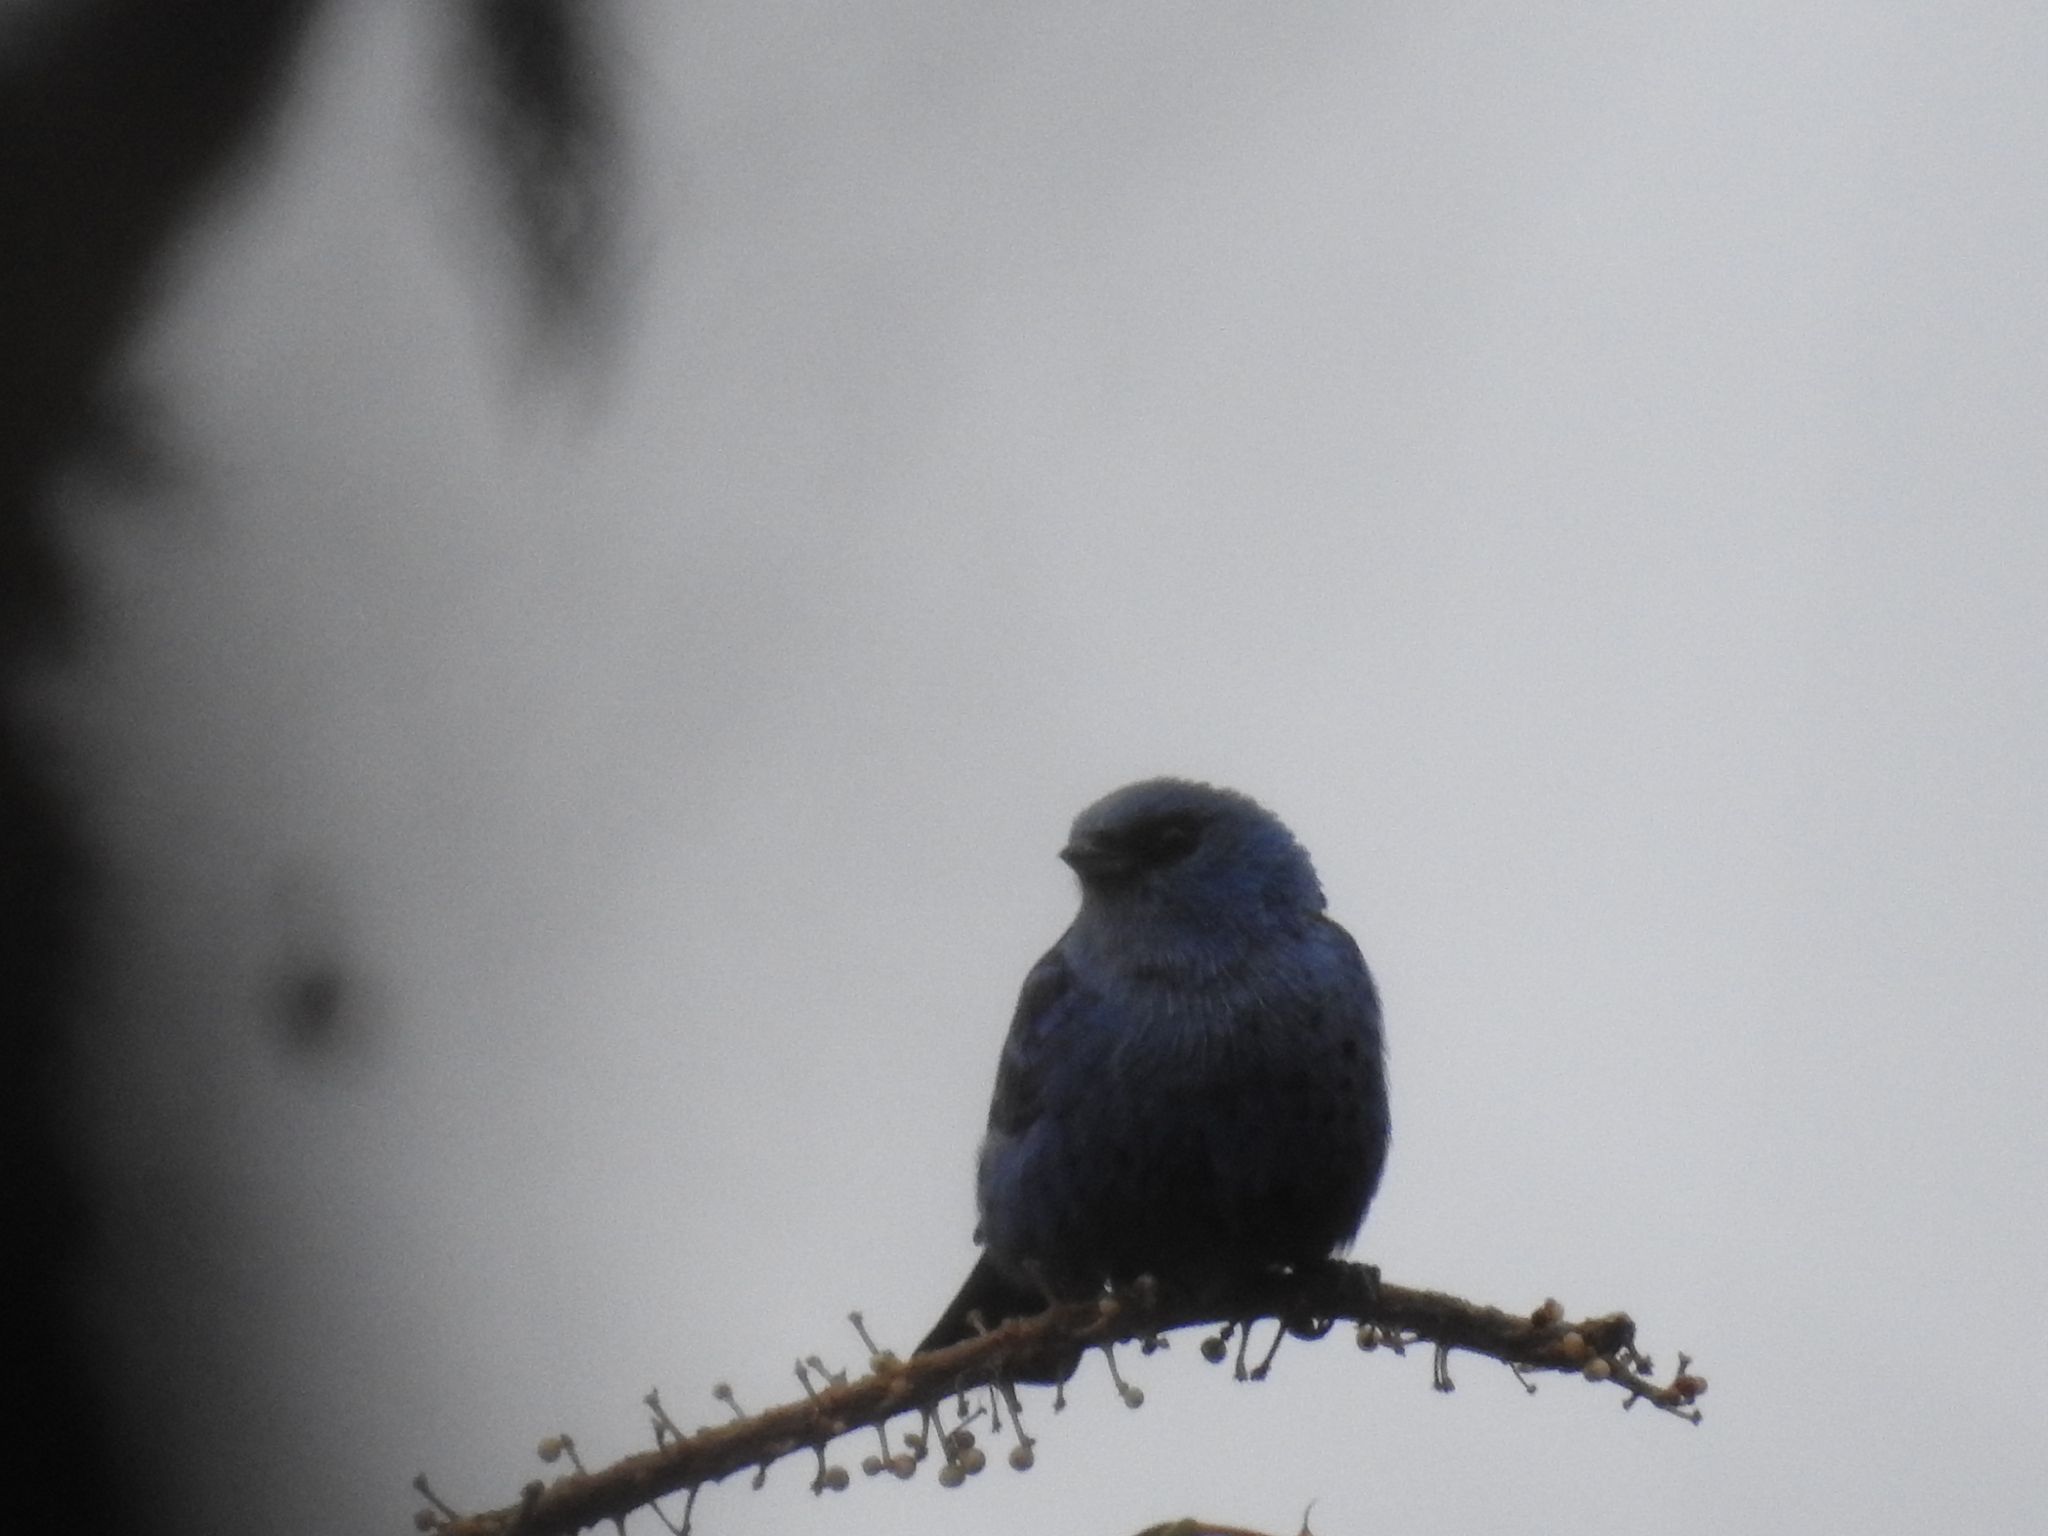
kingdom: Animalia
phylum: Chordata
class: Aves
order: Passeriformes
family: Thraupidae
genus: Tangara
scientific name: Tangara vassorii
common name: Blue-and-black tanager
